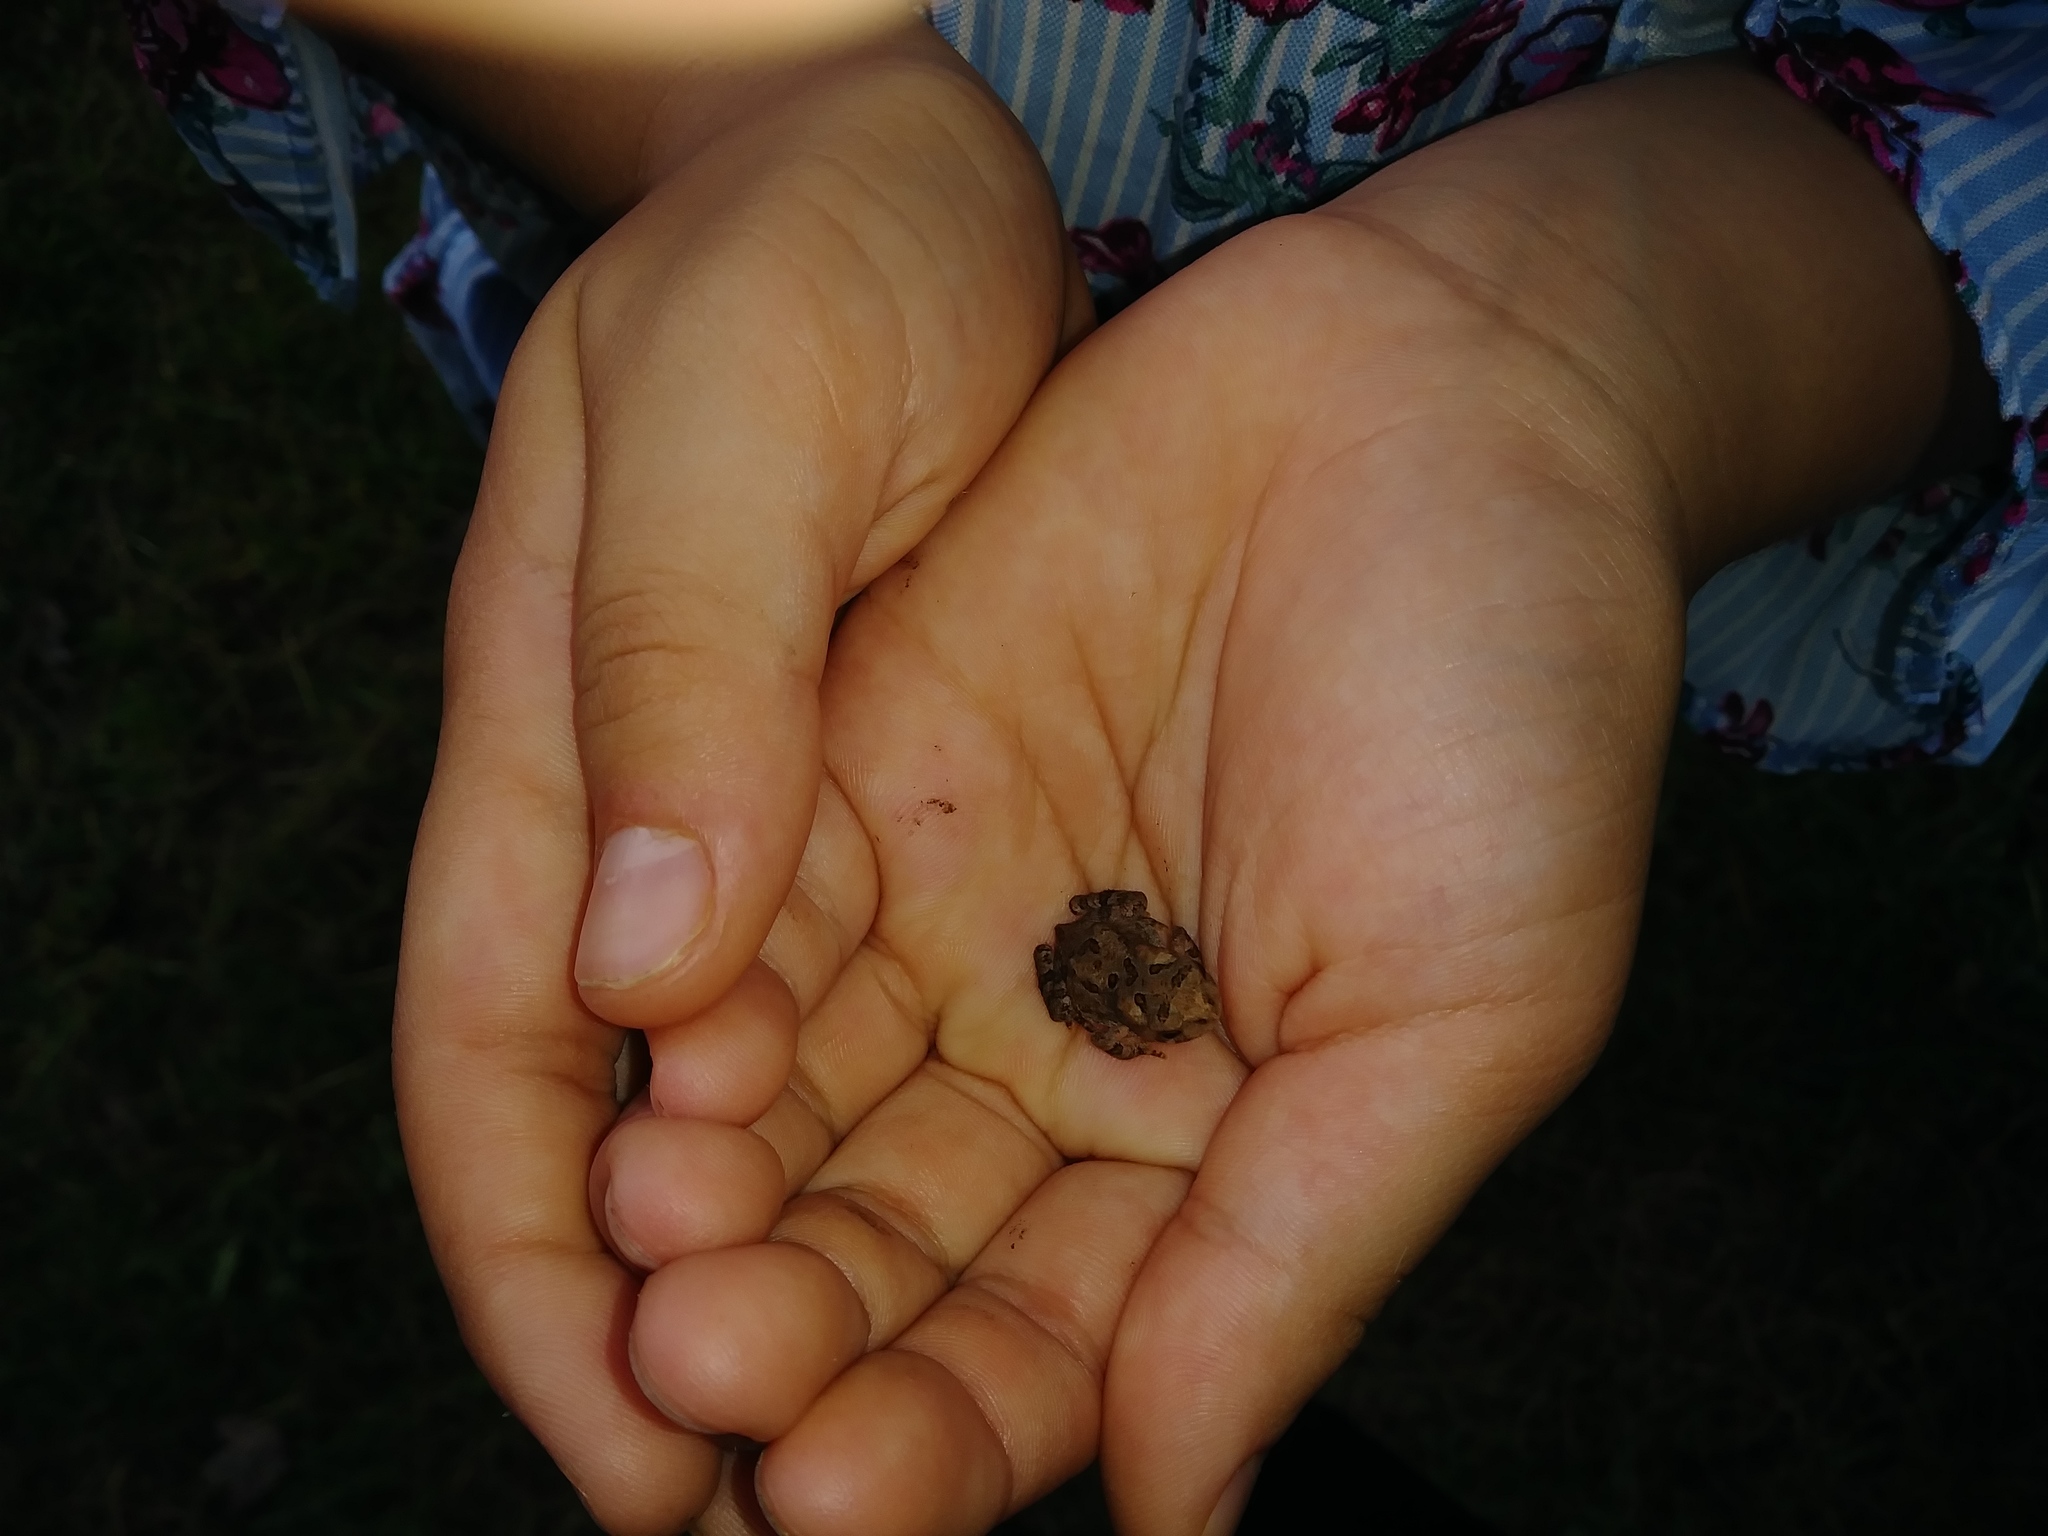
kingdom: Animalia
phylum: Chordata
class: Amphibia
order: Anura
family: Bufonidae
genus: Anaxyrus
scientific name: Anaxyrus americanus
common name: American toad
